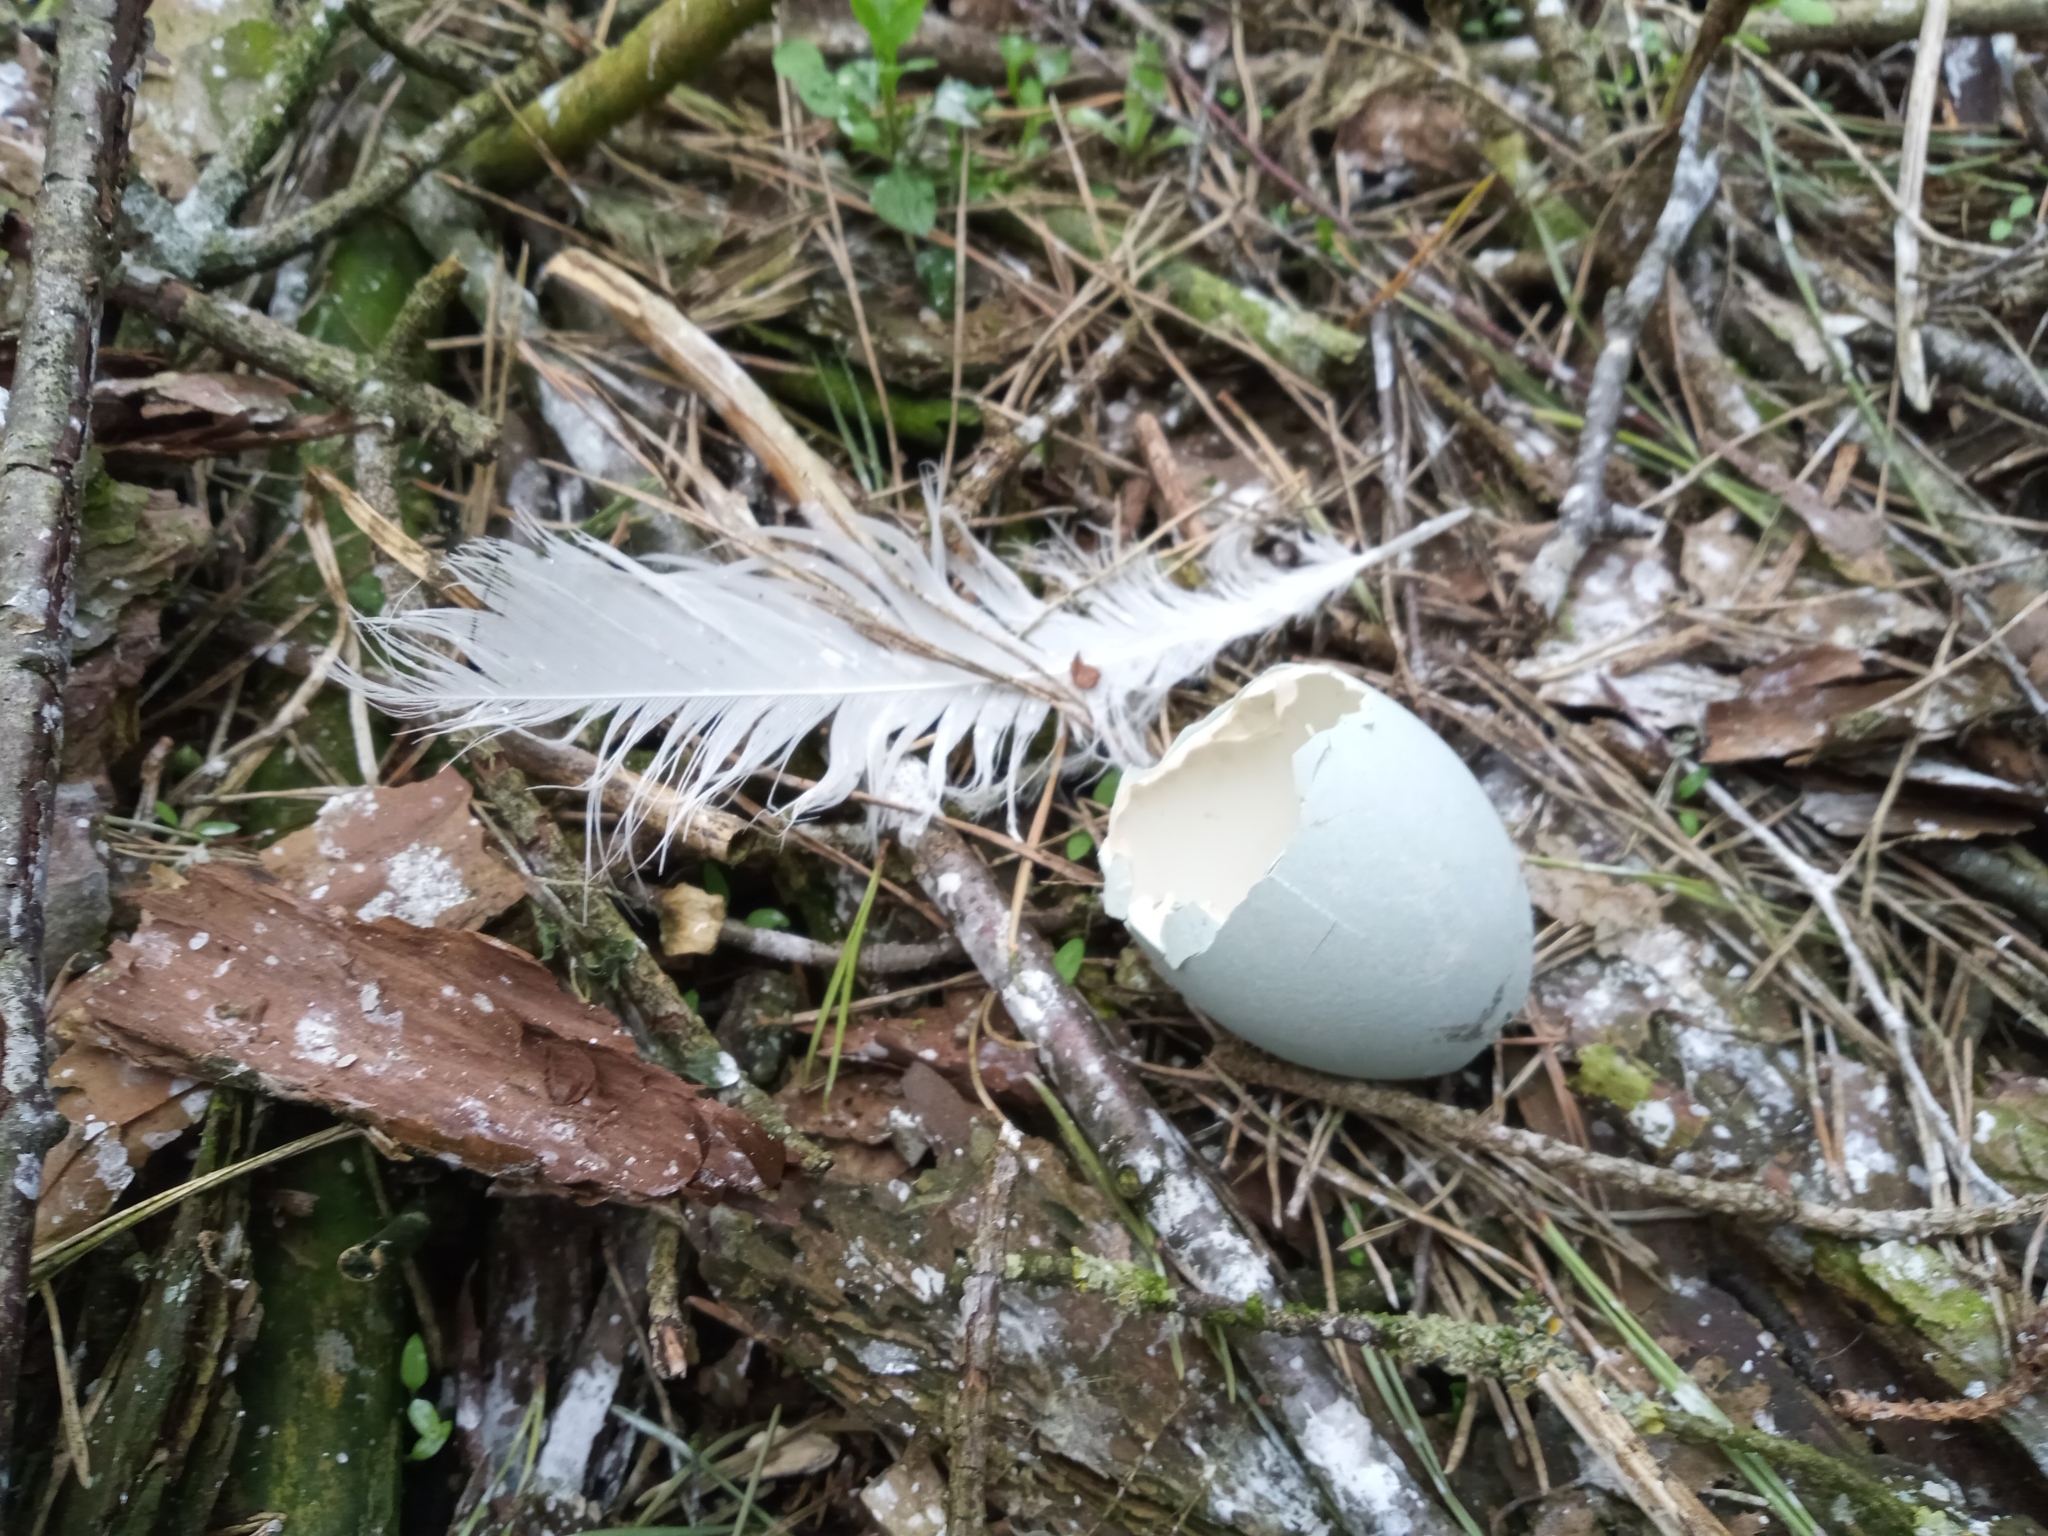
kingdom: Animalia
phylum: Chordata
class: Aves
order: Pelecaniformes
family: Ardeidae
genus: Ardea
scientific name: Ardea cinerea
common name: Grey heron
